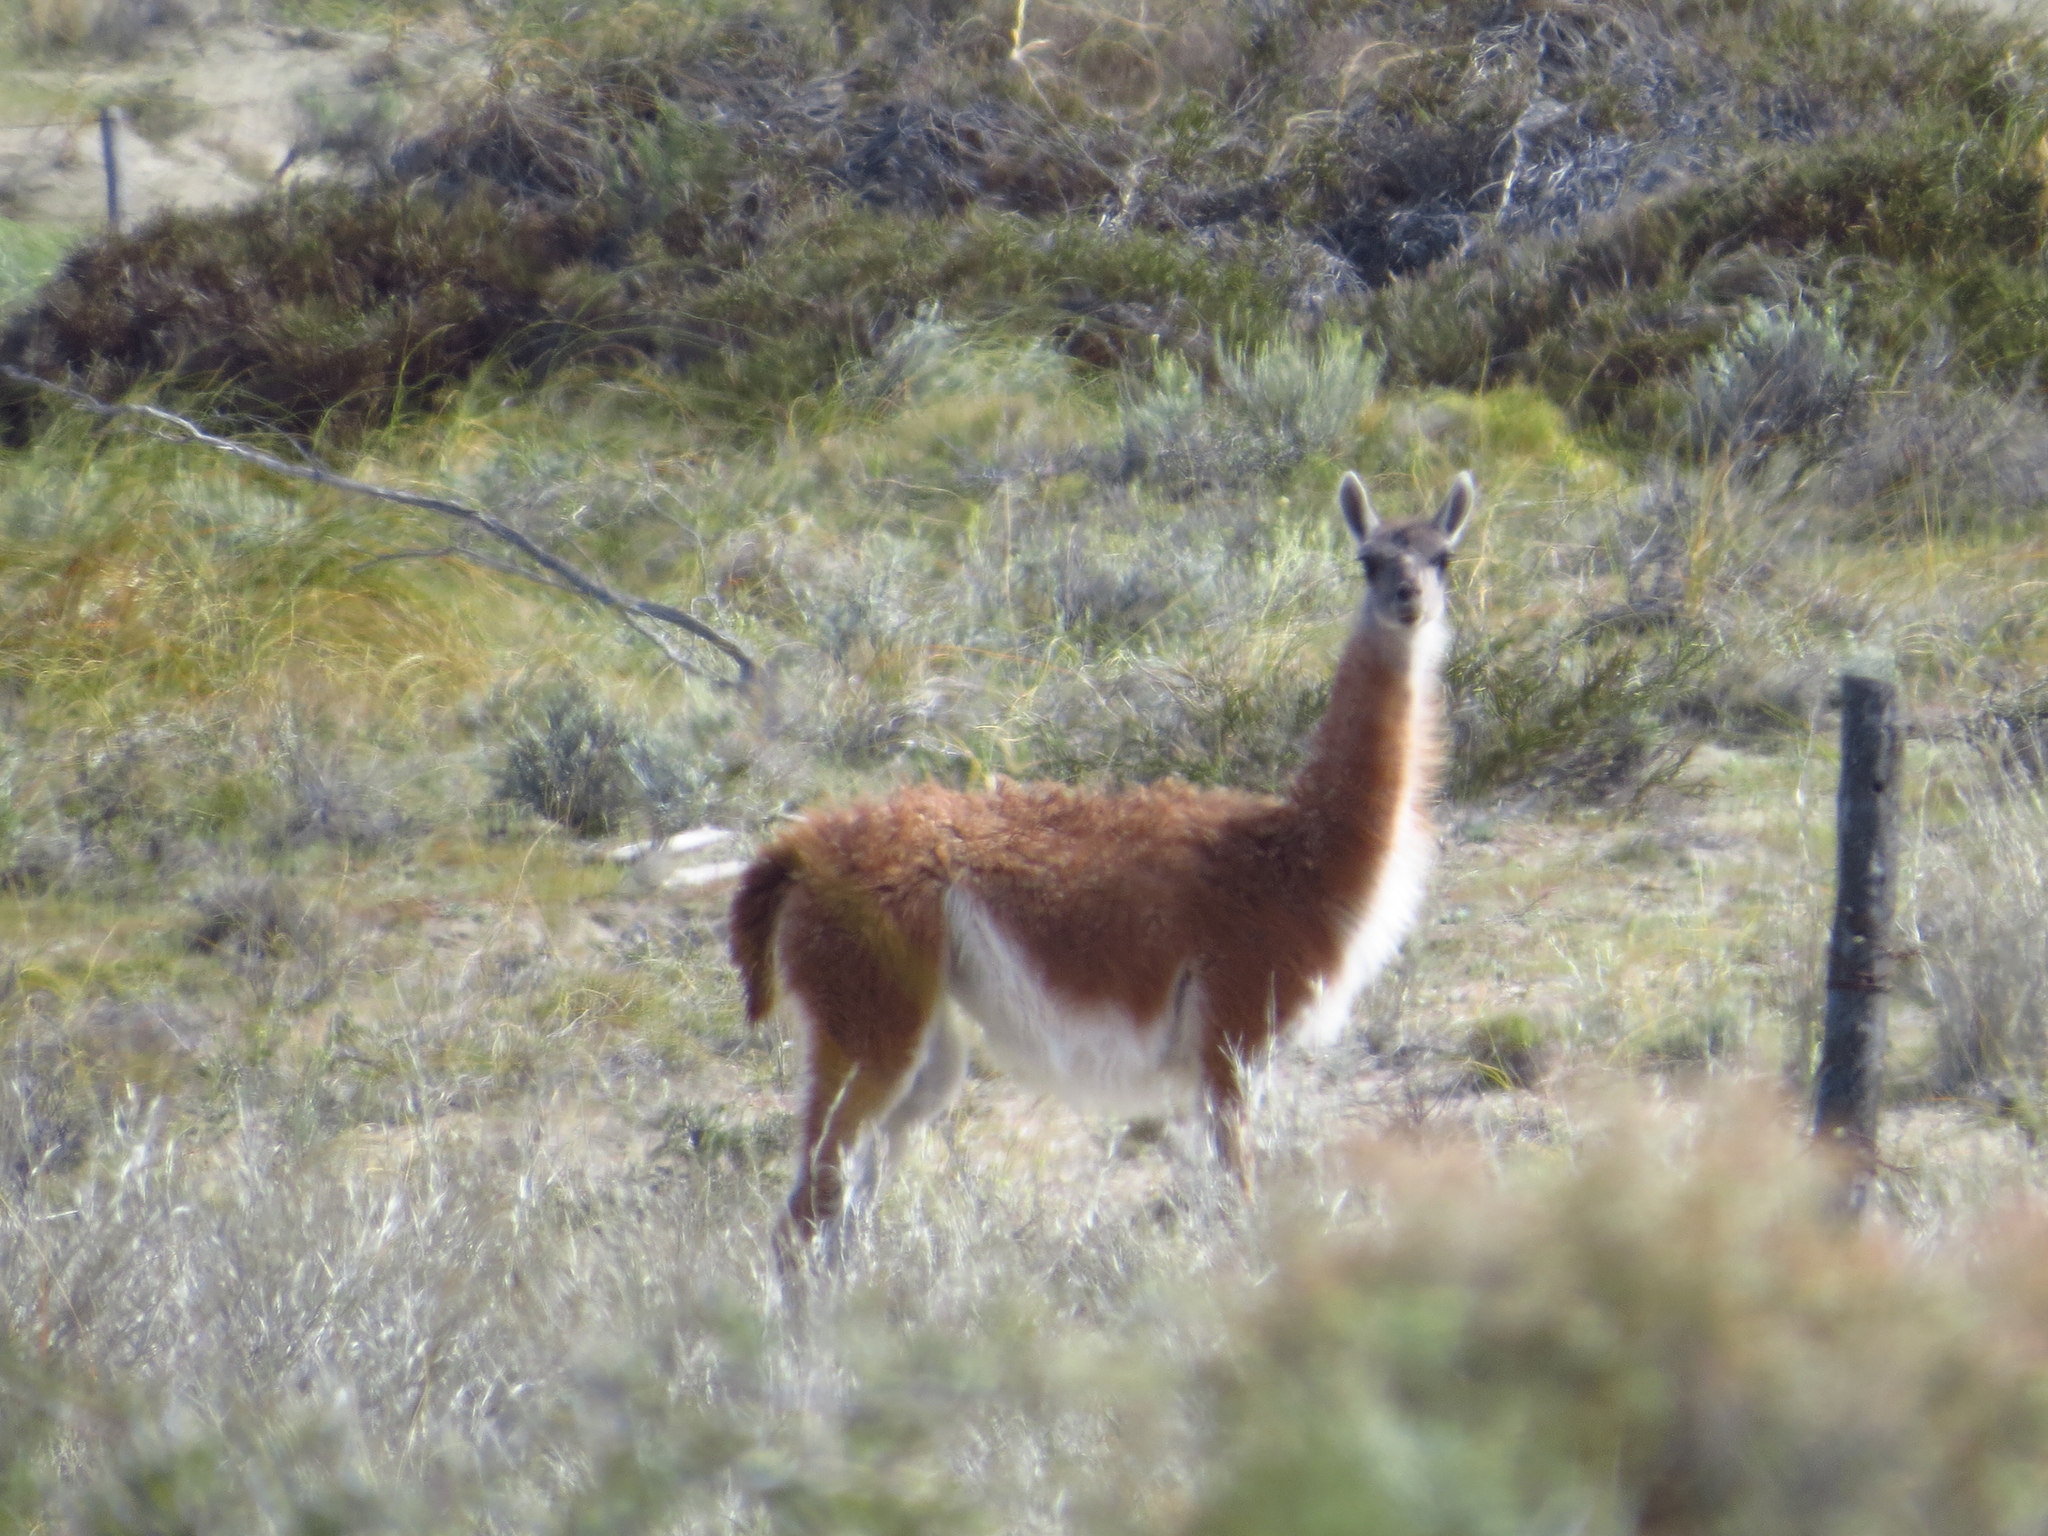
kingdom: Animalia
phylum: Chordata
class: Mammalia
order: Artiodactyla
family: Camelidae
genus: Lama
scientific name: Lama glama
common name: Llama
